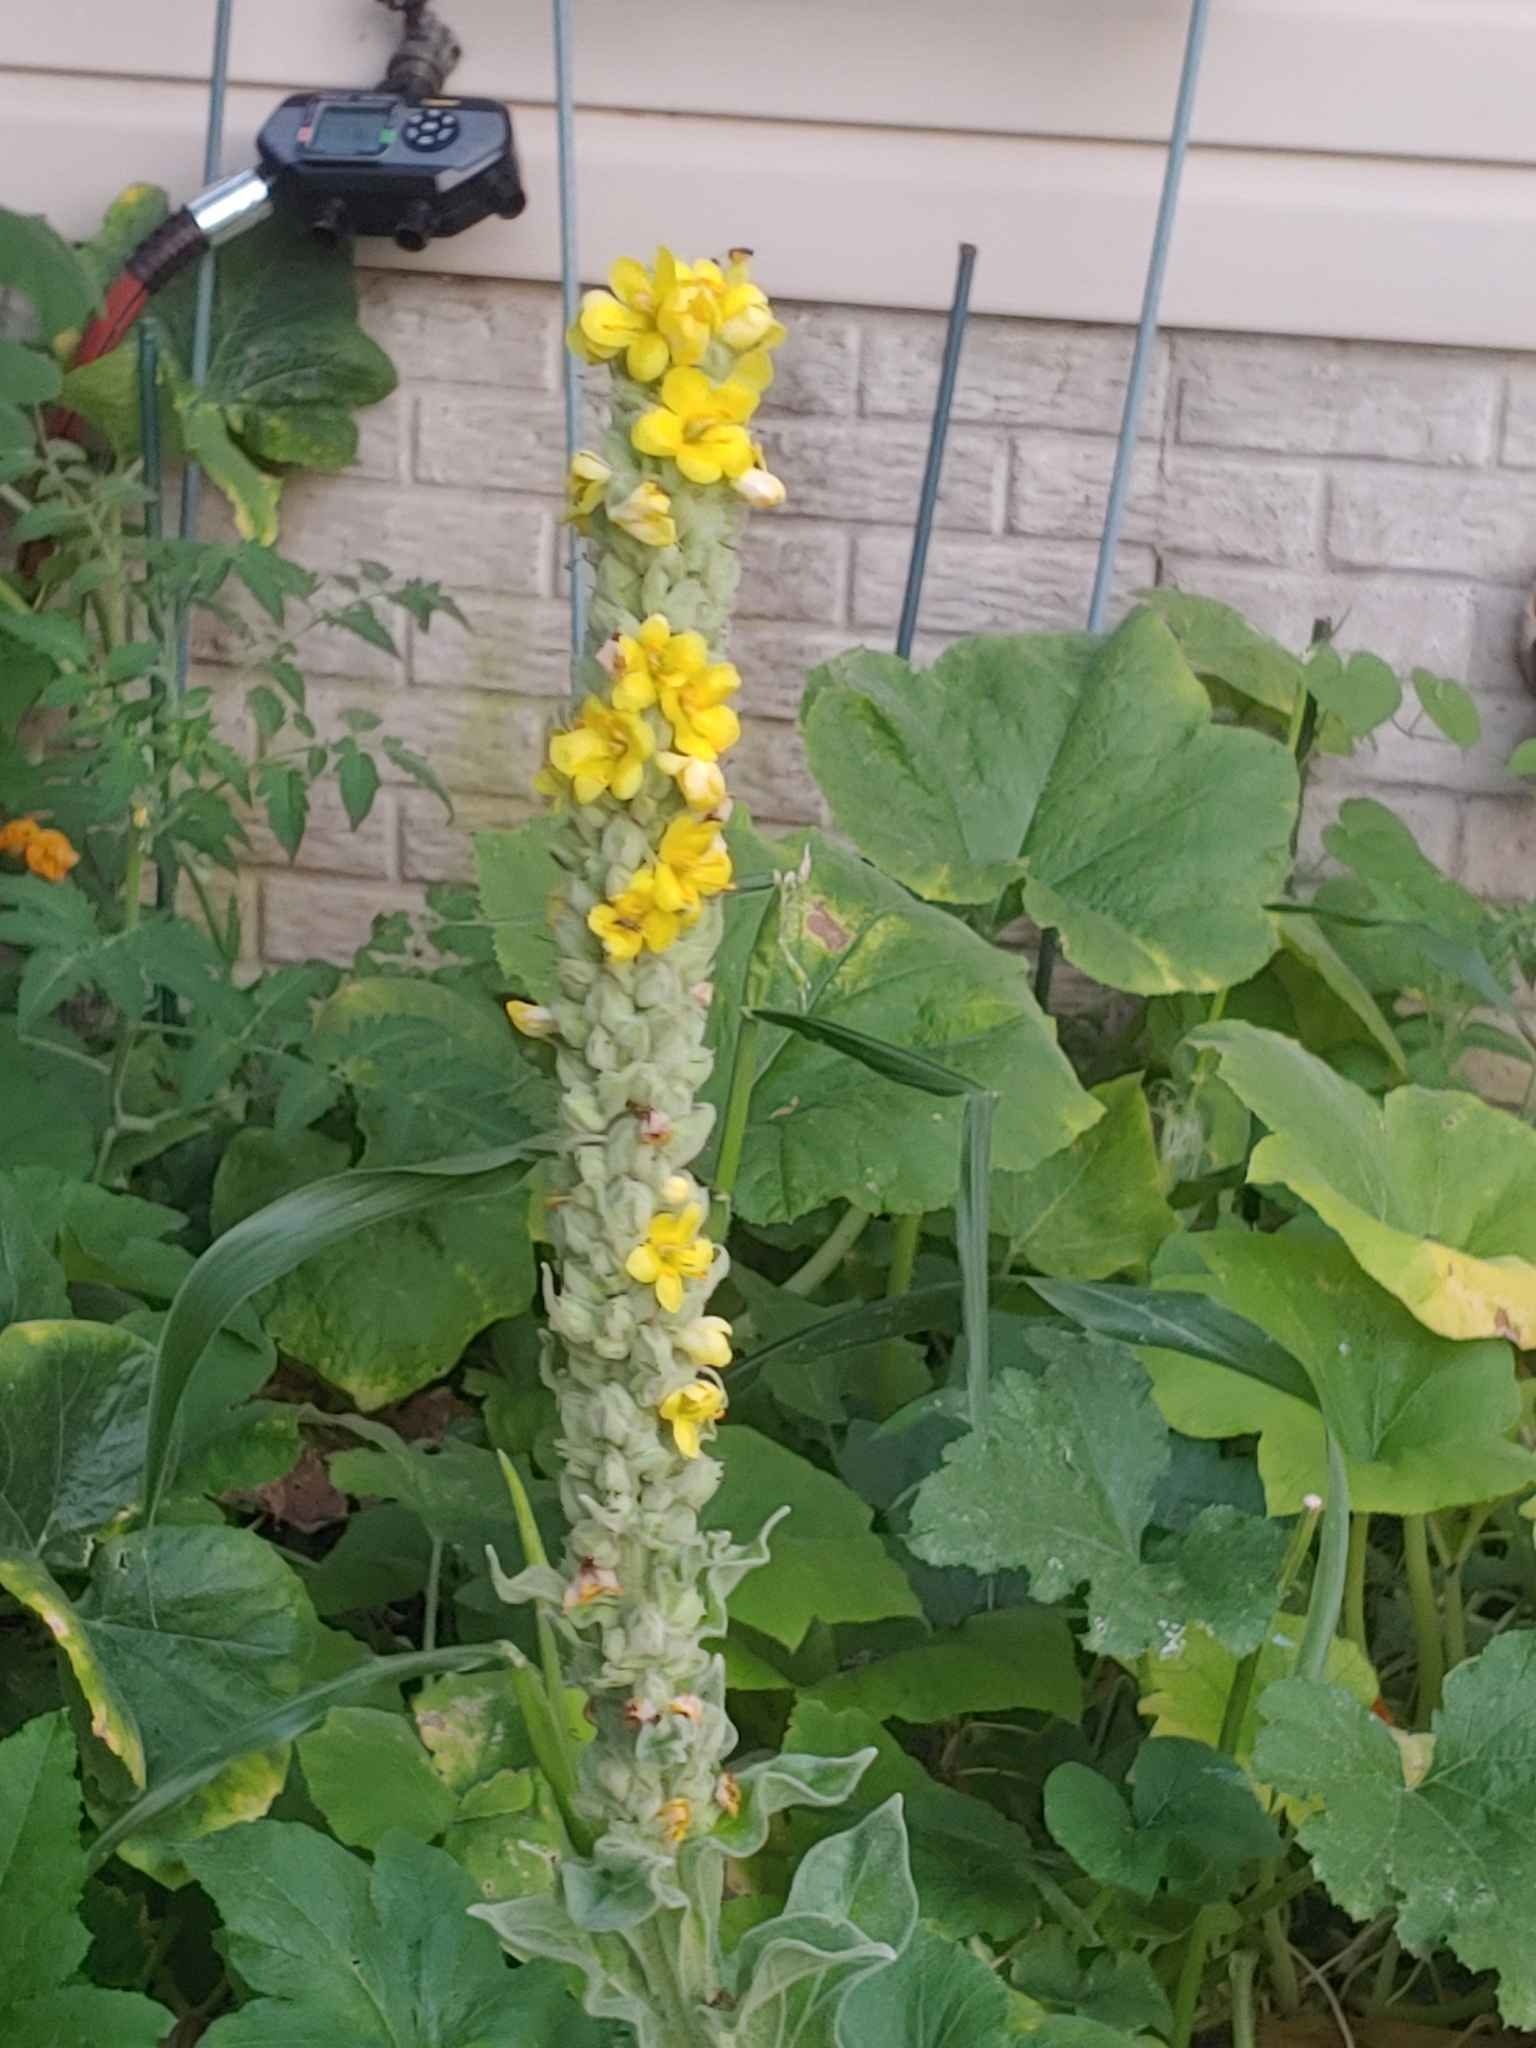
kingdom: Plantae
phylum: Tracheophyta
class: Magnoliopsida
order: Lamiales
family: Scrophulariaceae
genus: Verbascum
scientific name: Verbascum thapsus
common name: Common mullein
